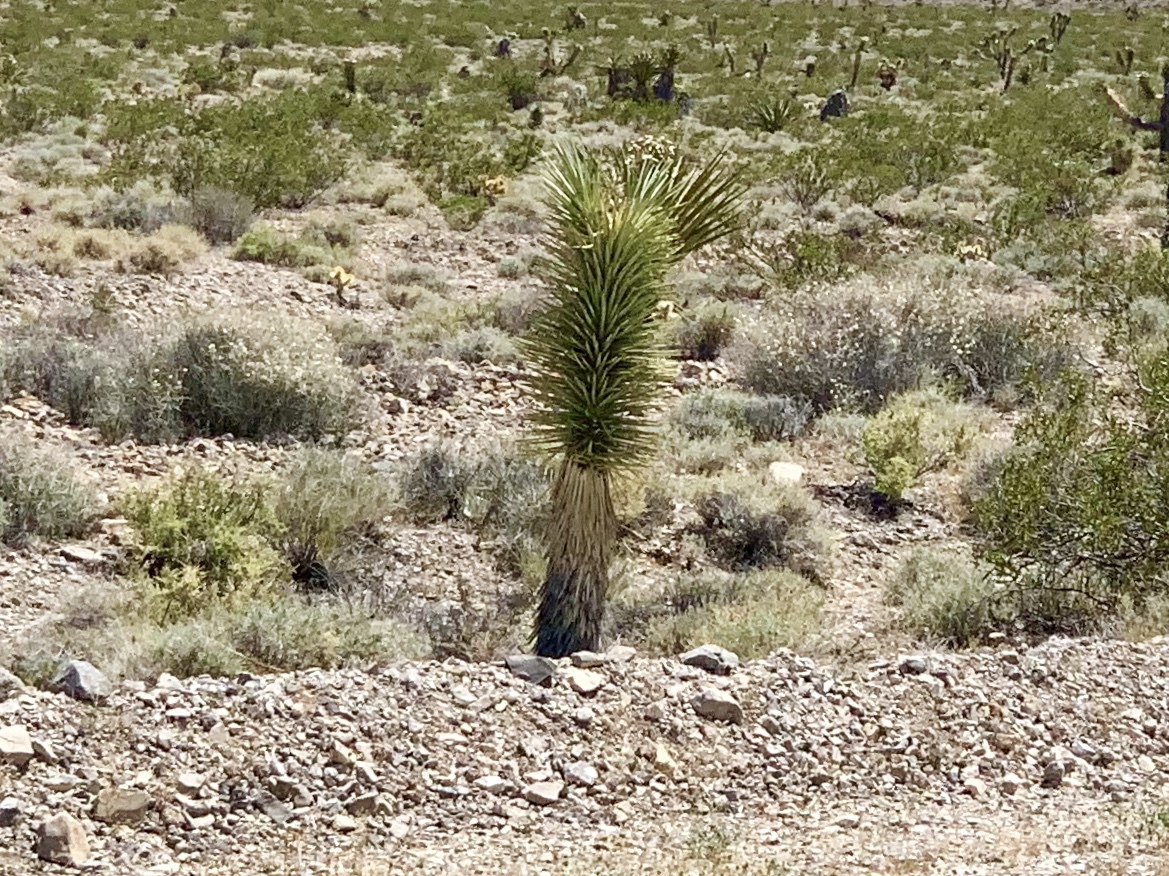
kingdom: Plantae
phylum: Tracheophyta
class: Liliopsida
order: Asparagales
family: Asparagaceae
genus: Yucca
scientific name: Yucca brevifolia
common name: Joshua tree
